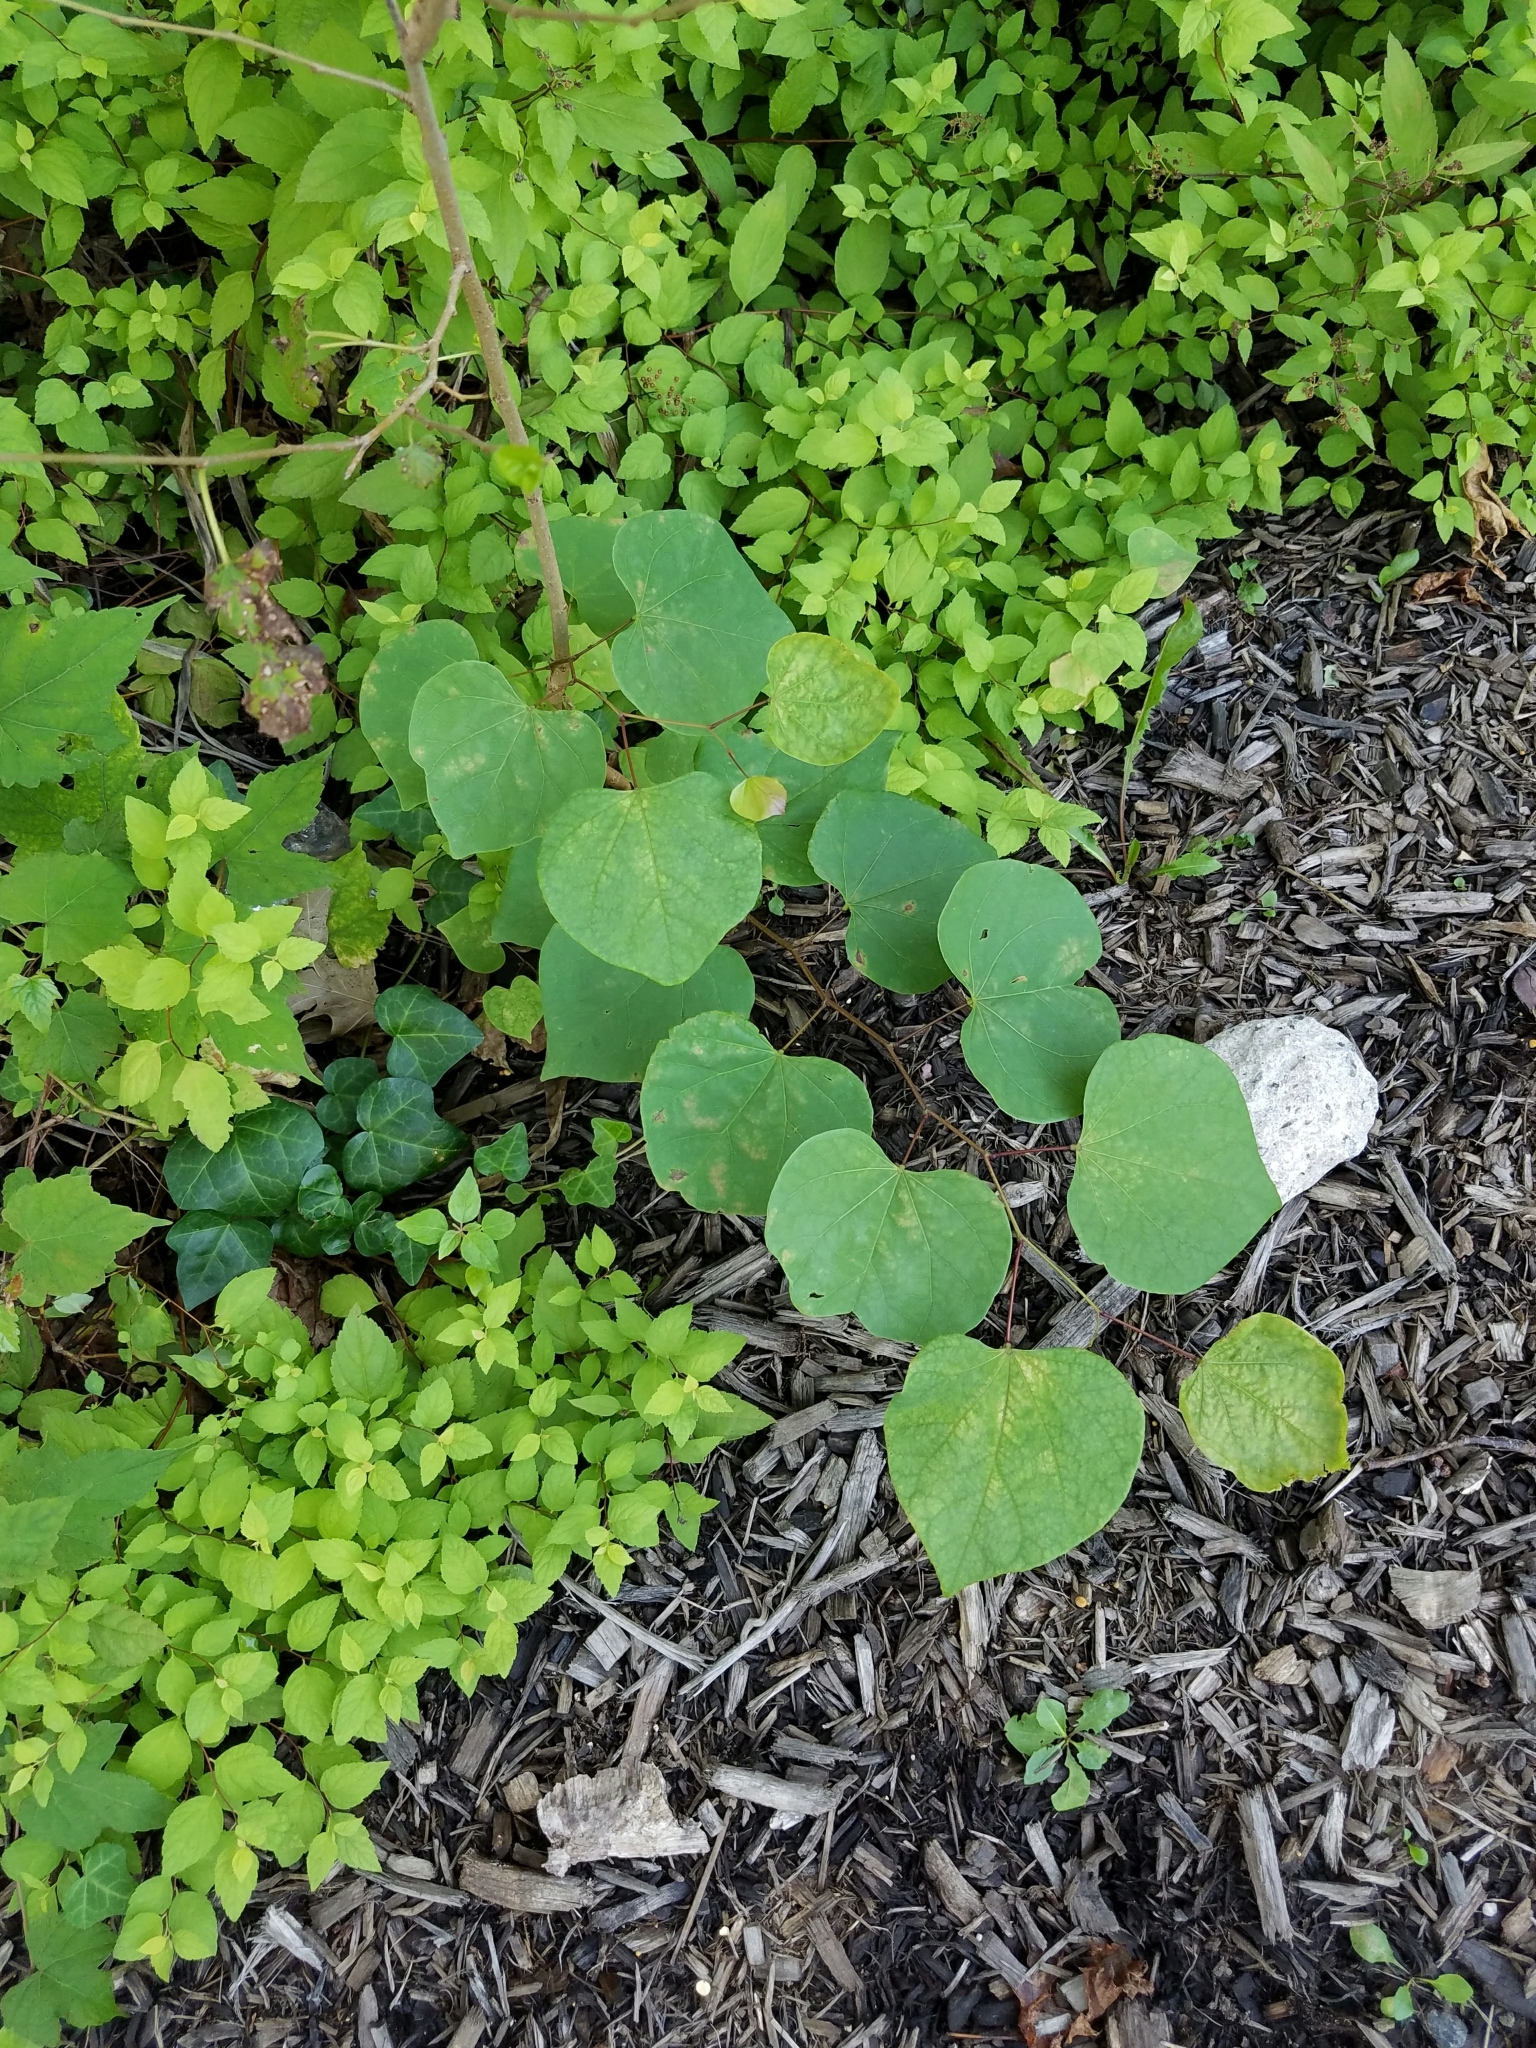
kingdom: Plantae
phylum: Tracheophyta
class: Magnoliopsida
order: Fabales
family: Fabaceae
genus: Cercis
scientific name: Cercis canadensis
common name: Eastern redbud
